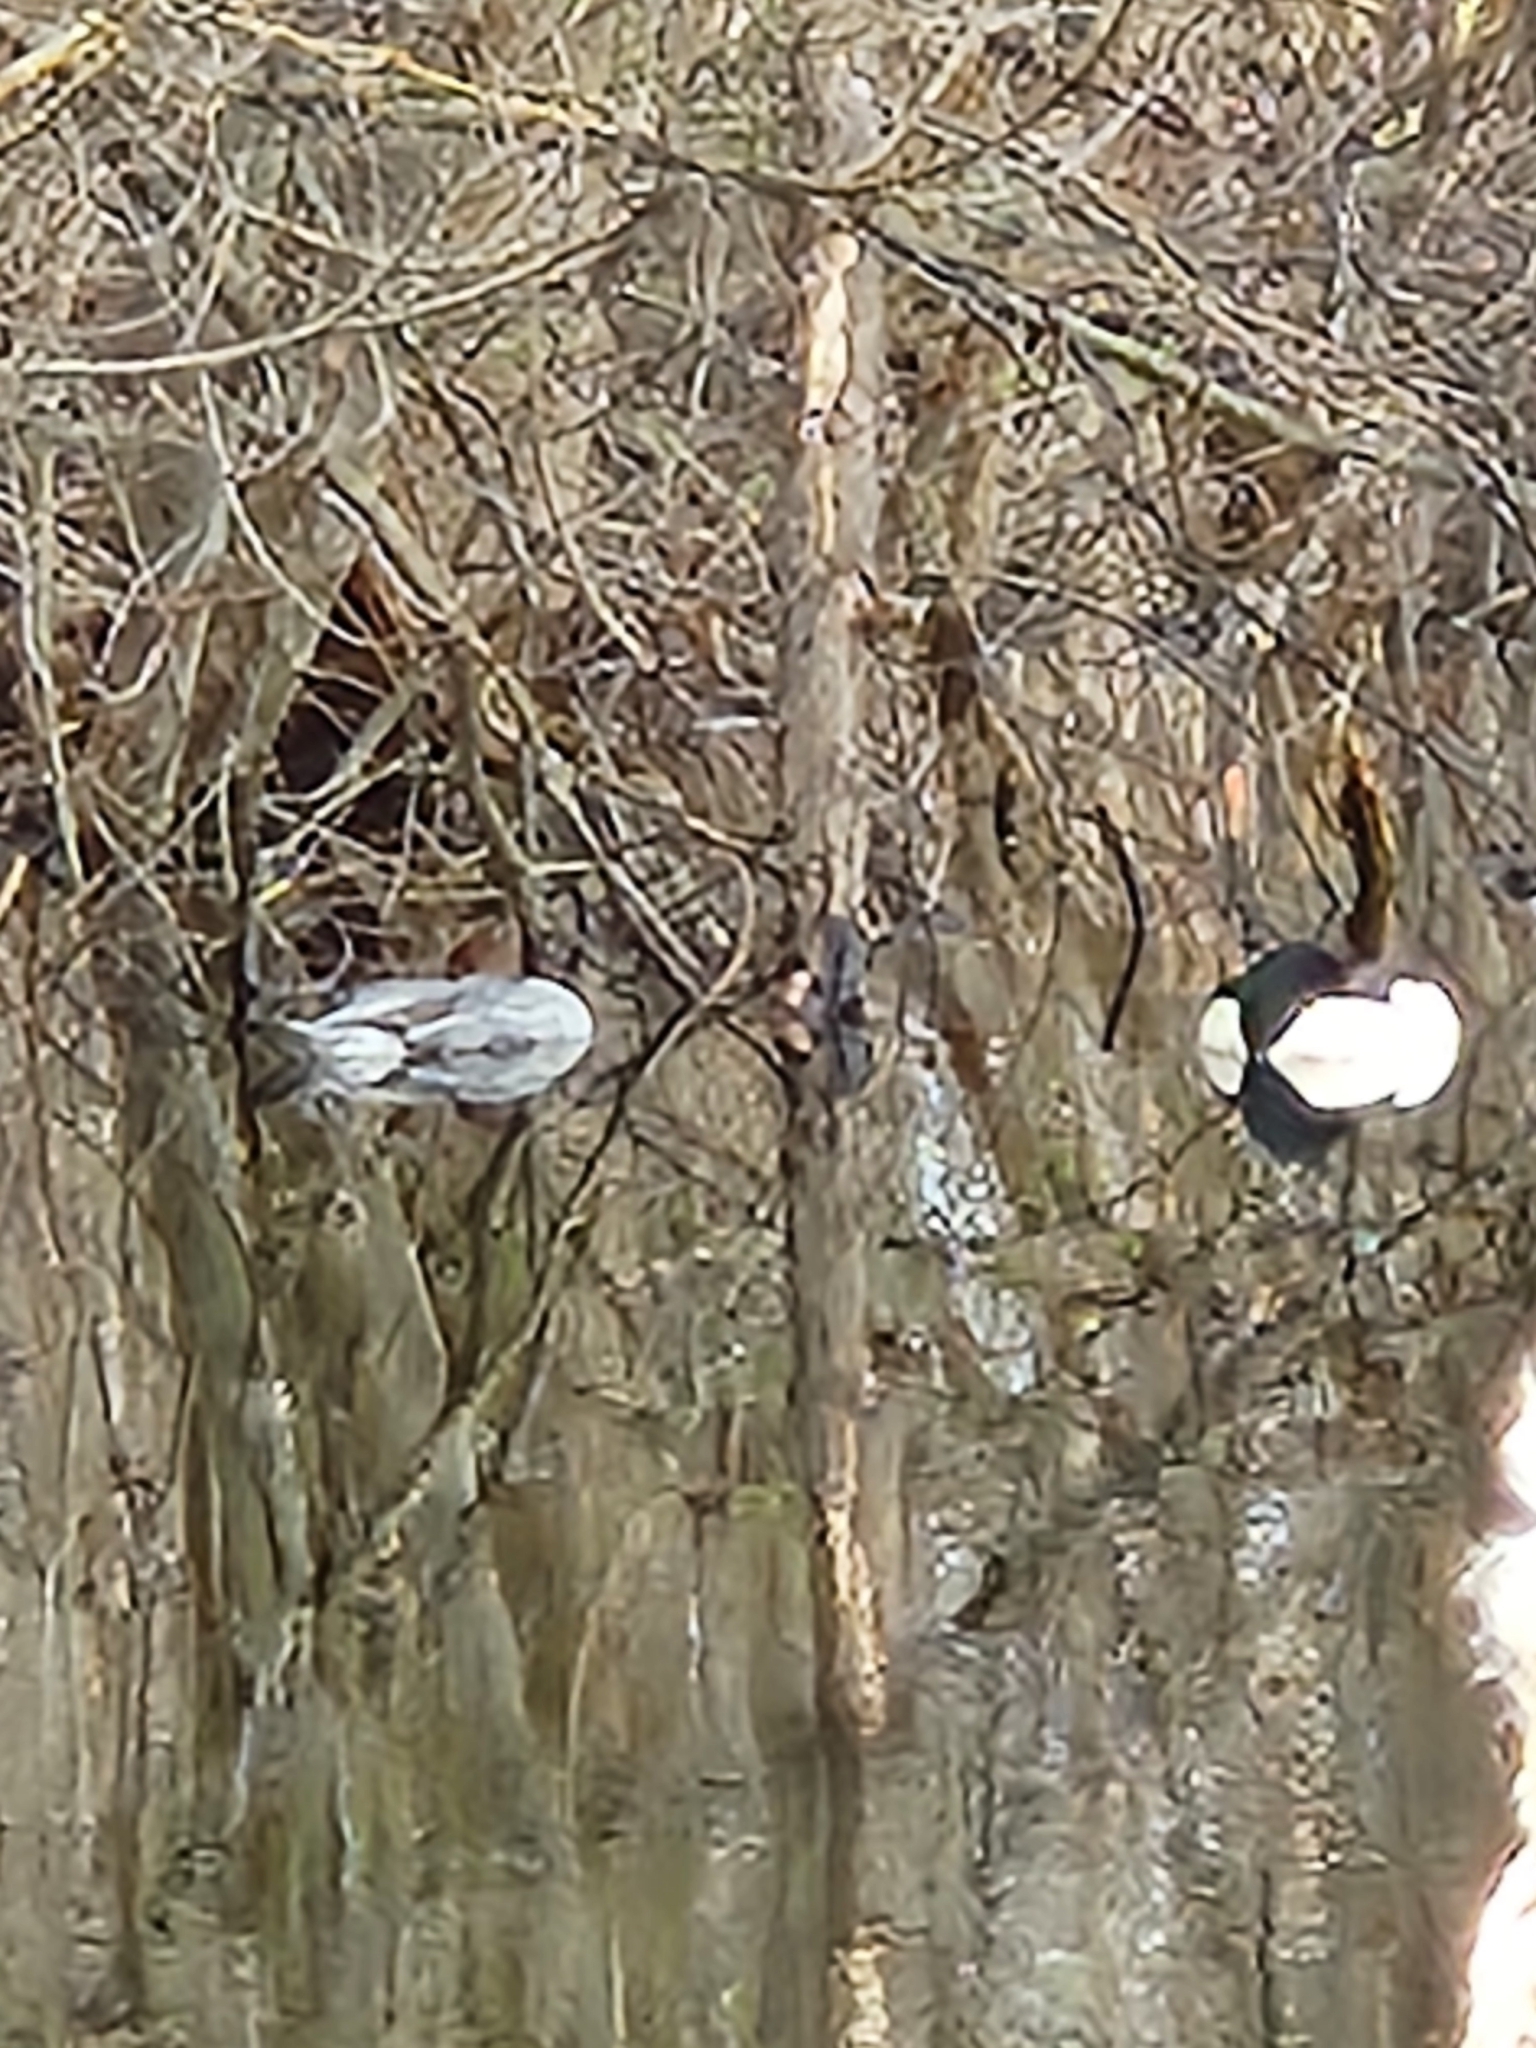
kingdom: Animalia
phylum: Chordata
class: Aves
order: Anseriformes
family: Anatidae
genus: Mergus
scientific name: Mergus merganser
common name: Common merganser
